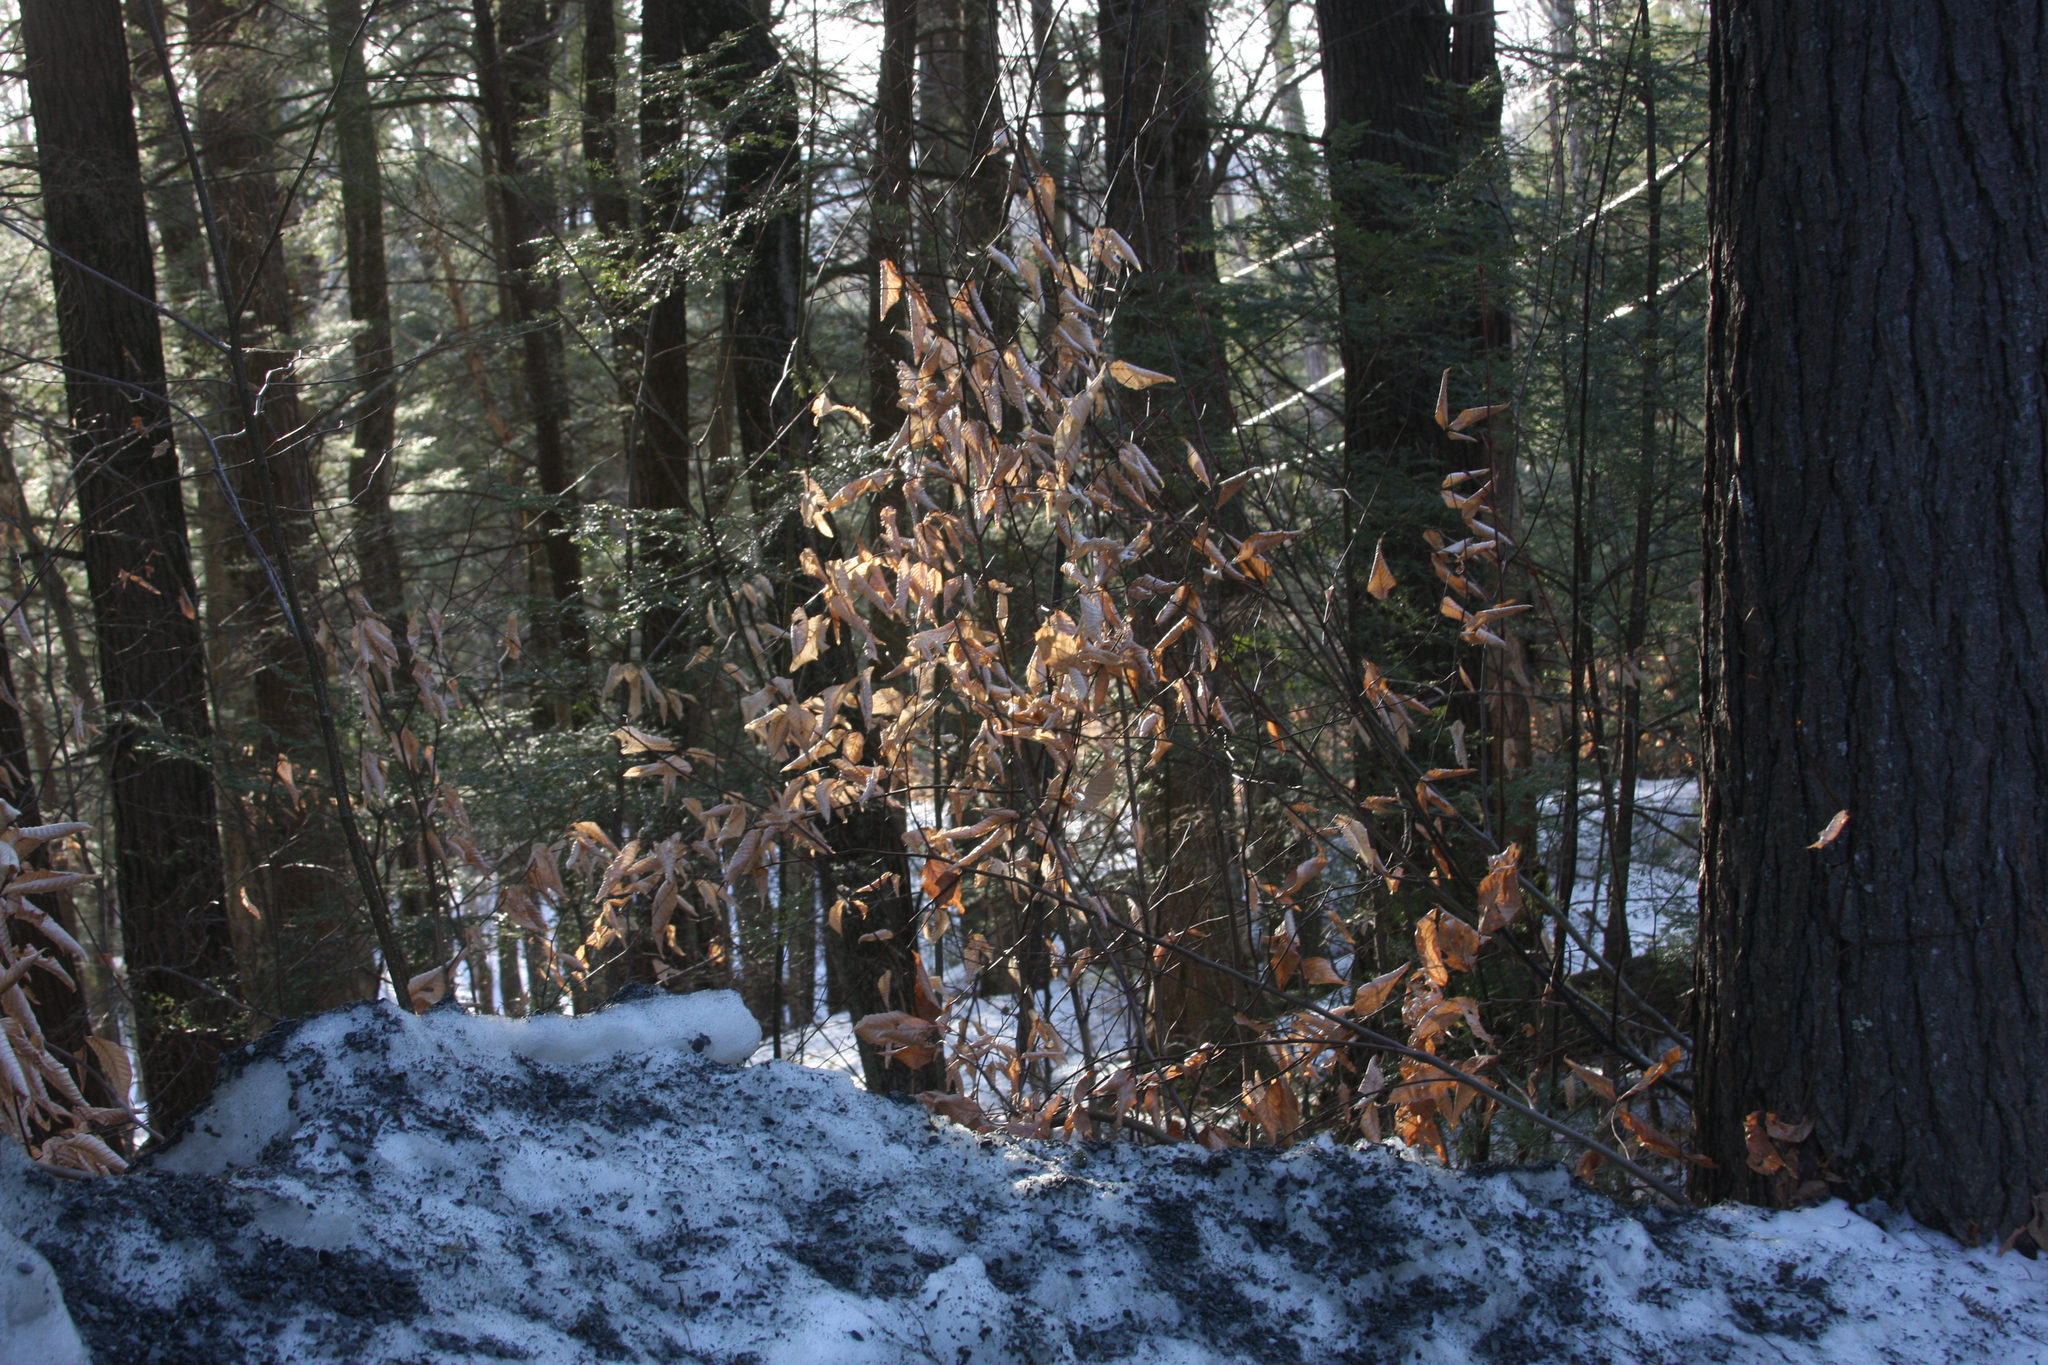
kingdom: Plantae
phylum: Tracheophyta
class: Magnoliopsida
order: Fagales
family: Fagaceae
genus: Fagus
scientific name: Fagus grandifolia
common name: American beech
